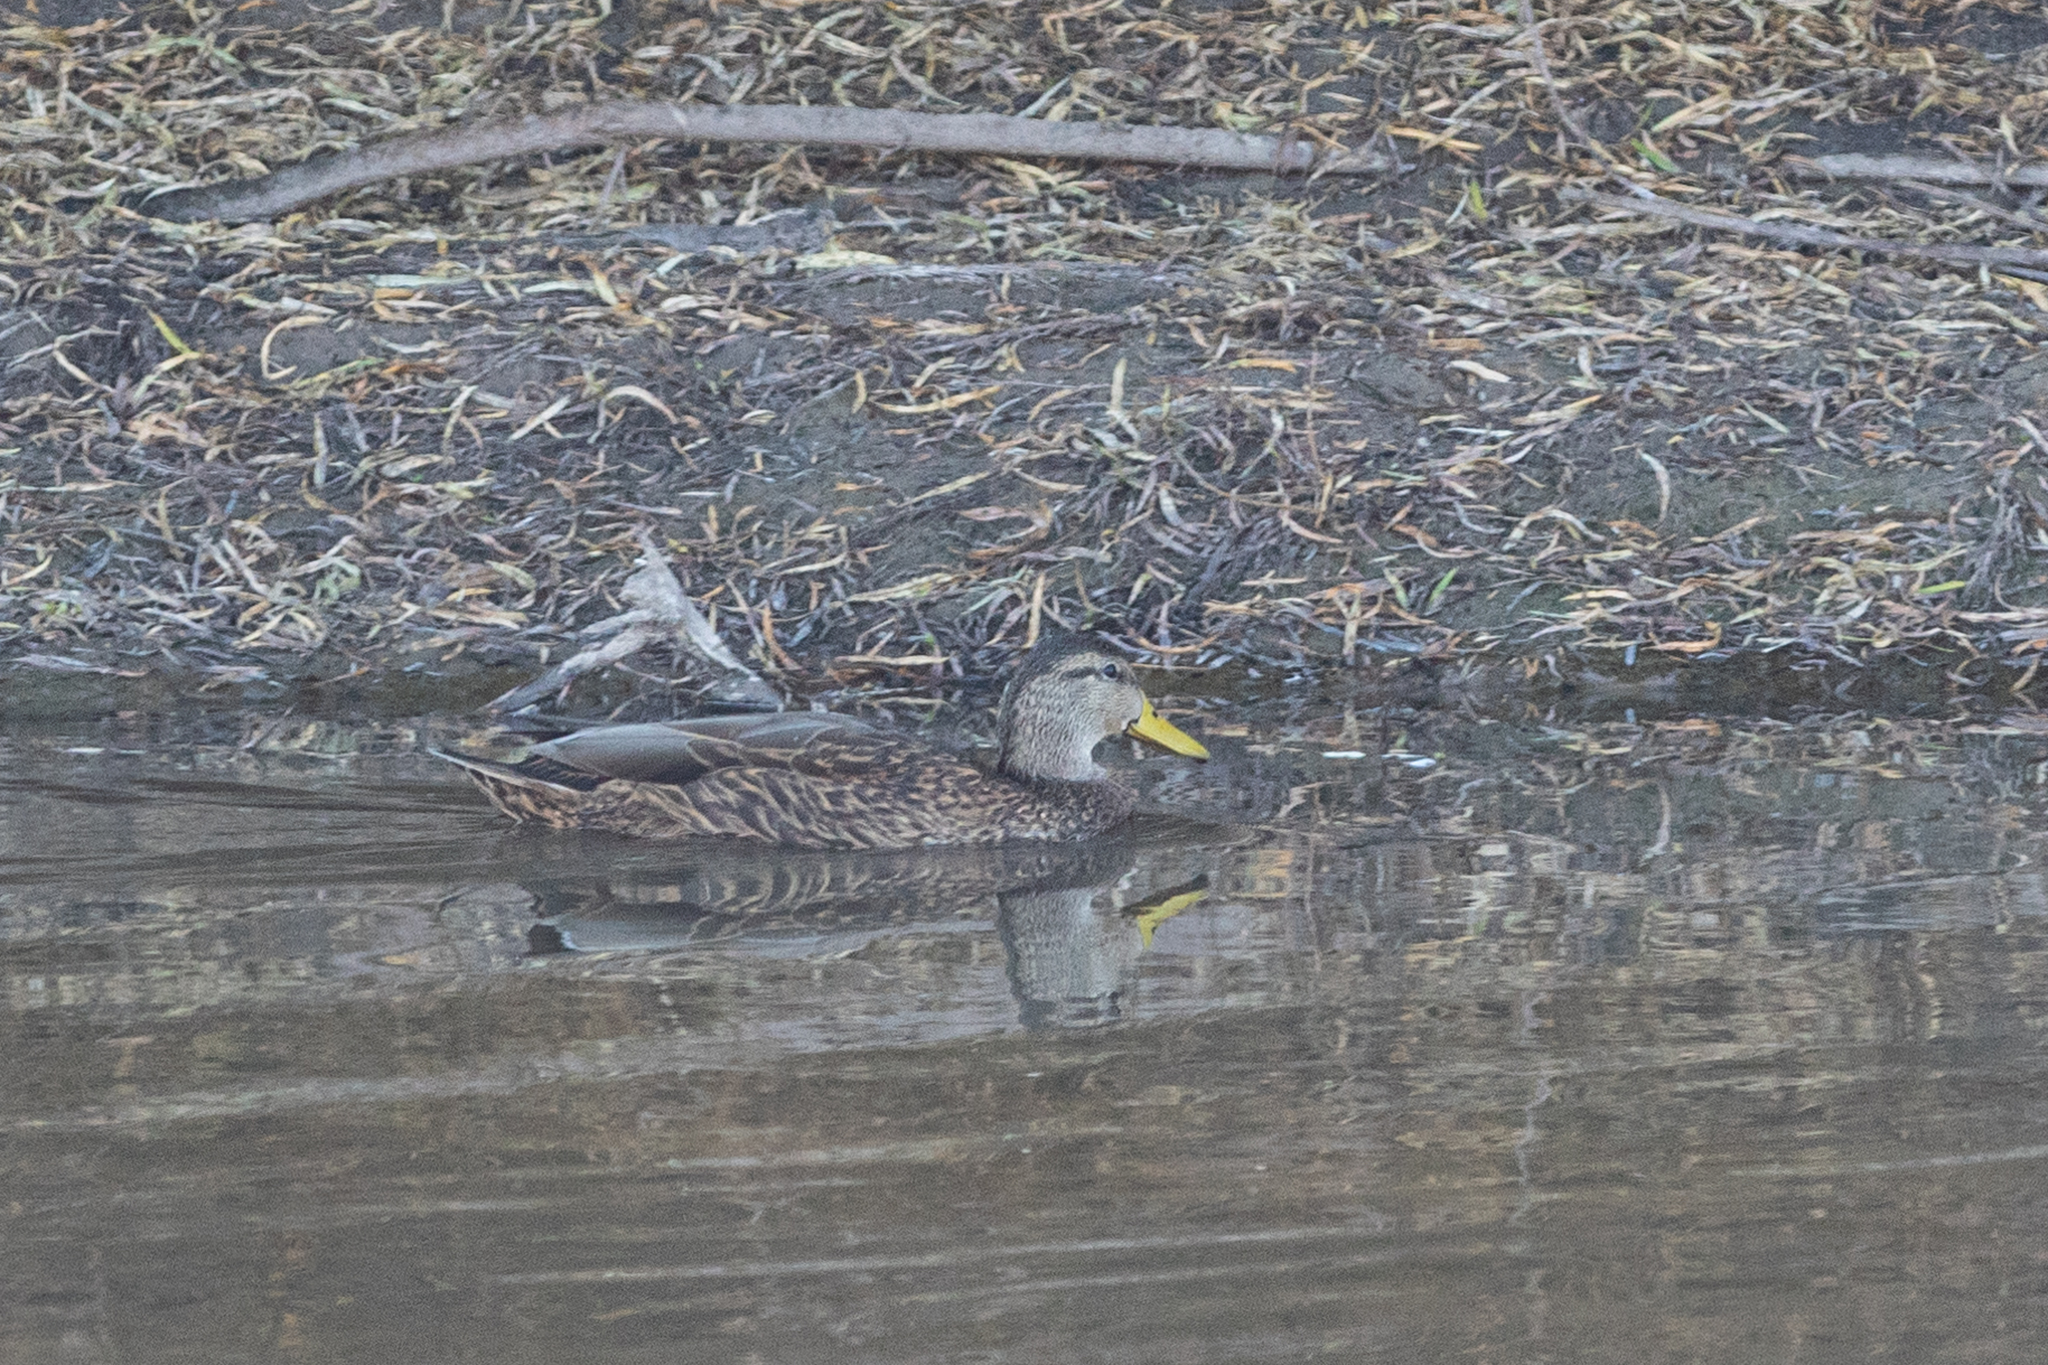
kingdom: Animalia
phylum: Chordata
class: Aves
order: Anseriformes
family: Anatidae
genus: Anas
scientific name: Anas diazi
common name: Mexican duck
